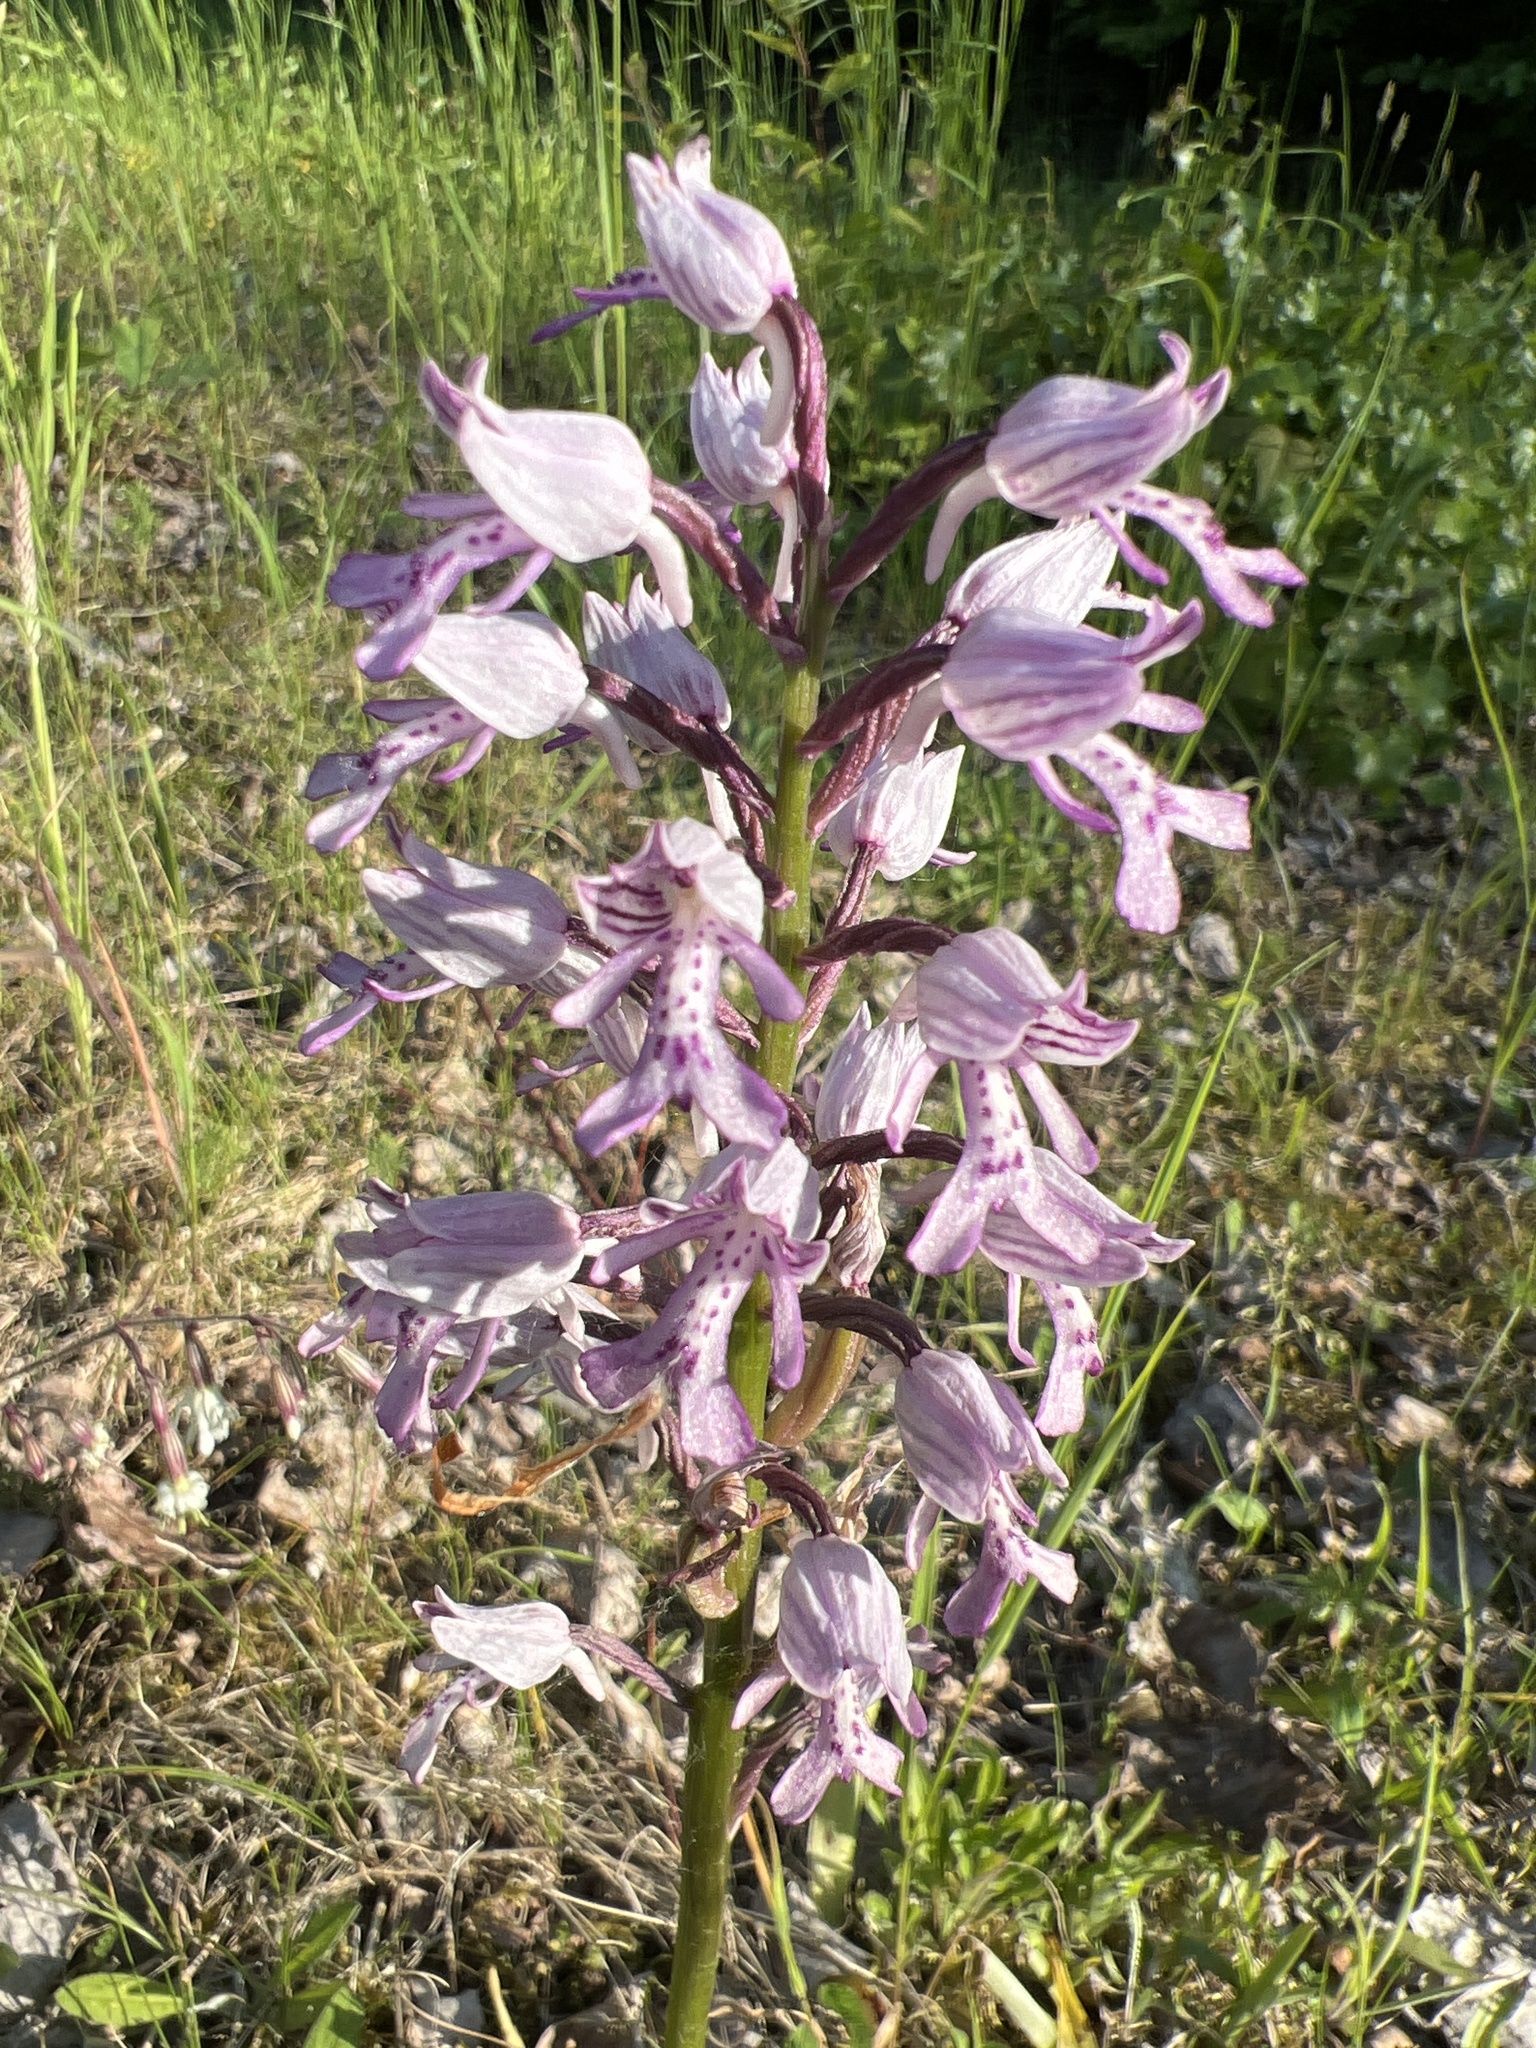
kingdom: Plantae
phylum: Tracheophyta
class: Liliopsida
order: Asparagales
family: Orchidaceae
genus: Orchis
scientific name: Orchis militaris
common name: Military orchid
